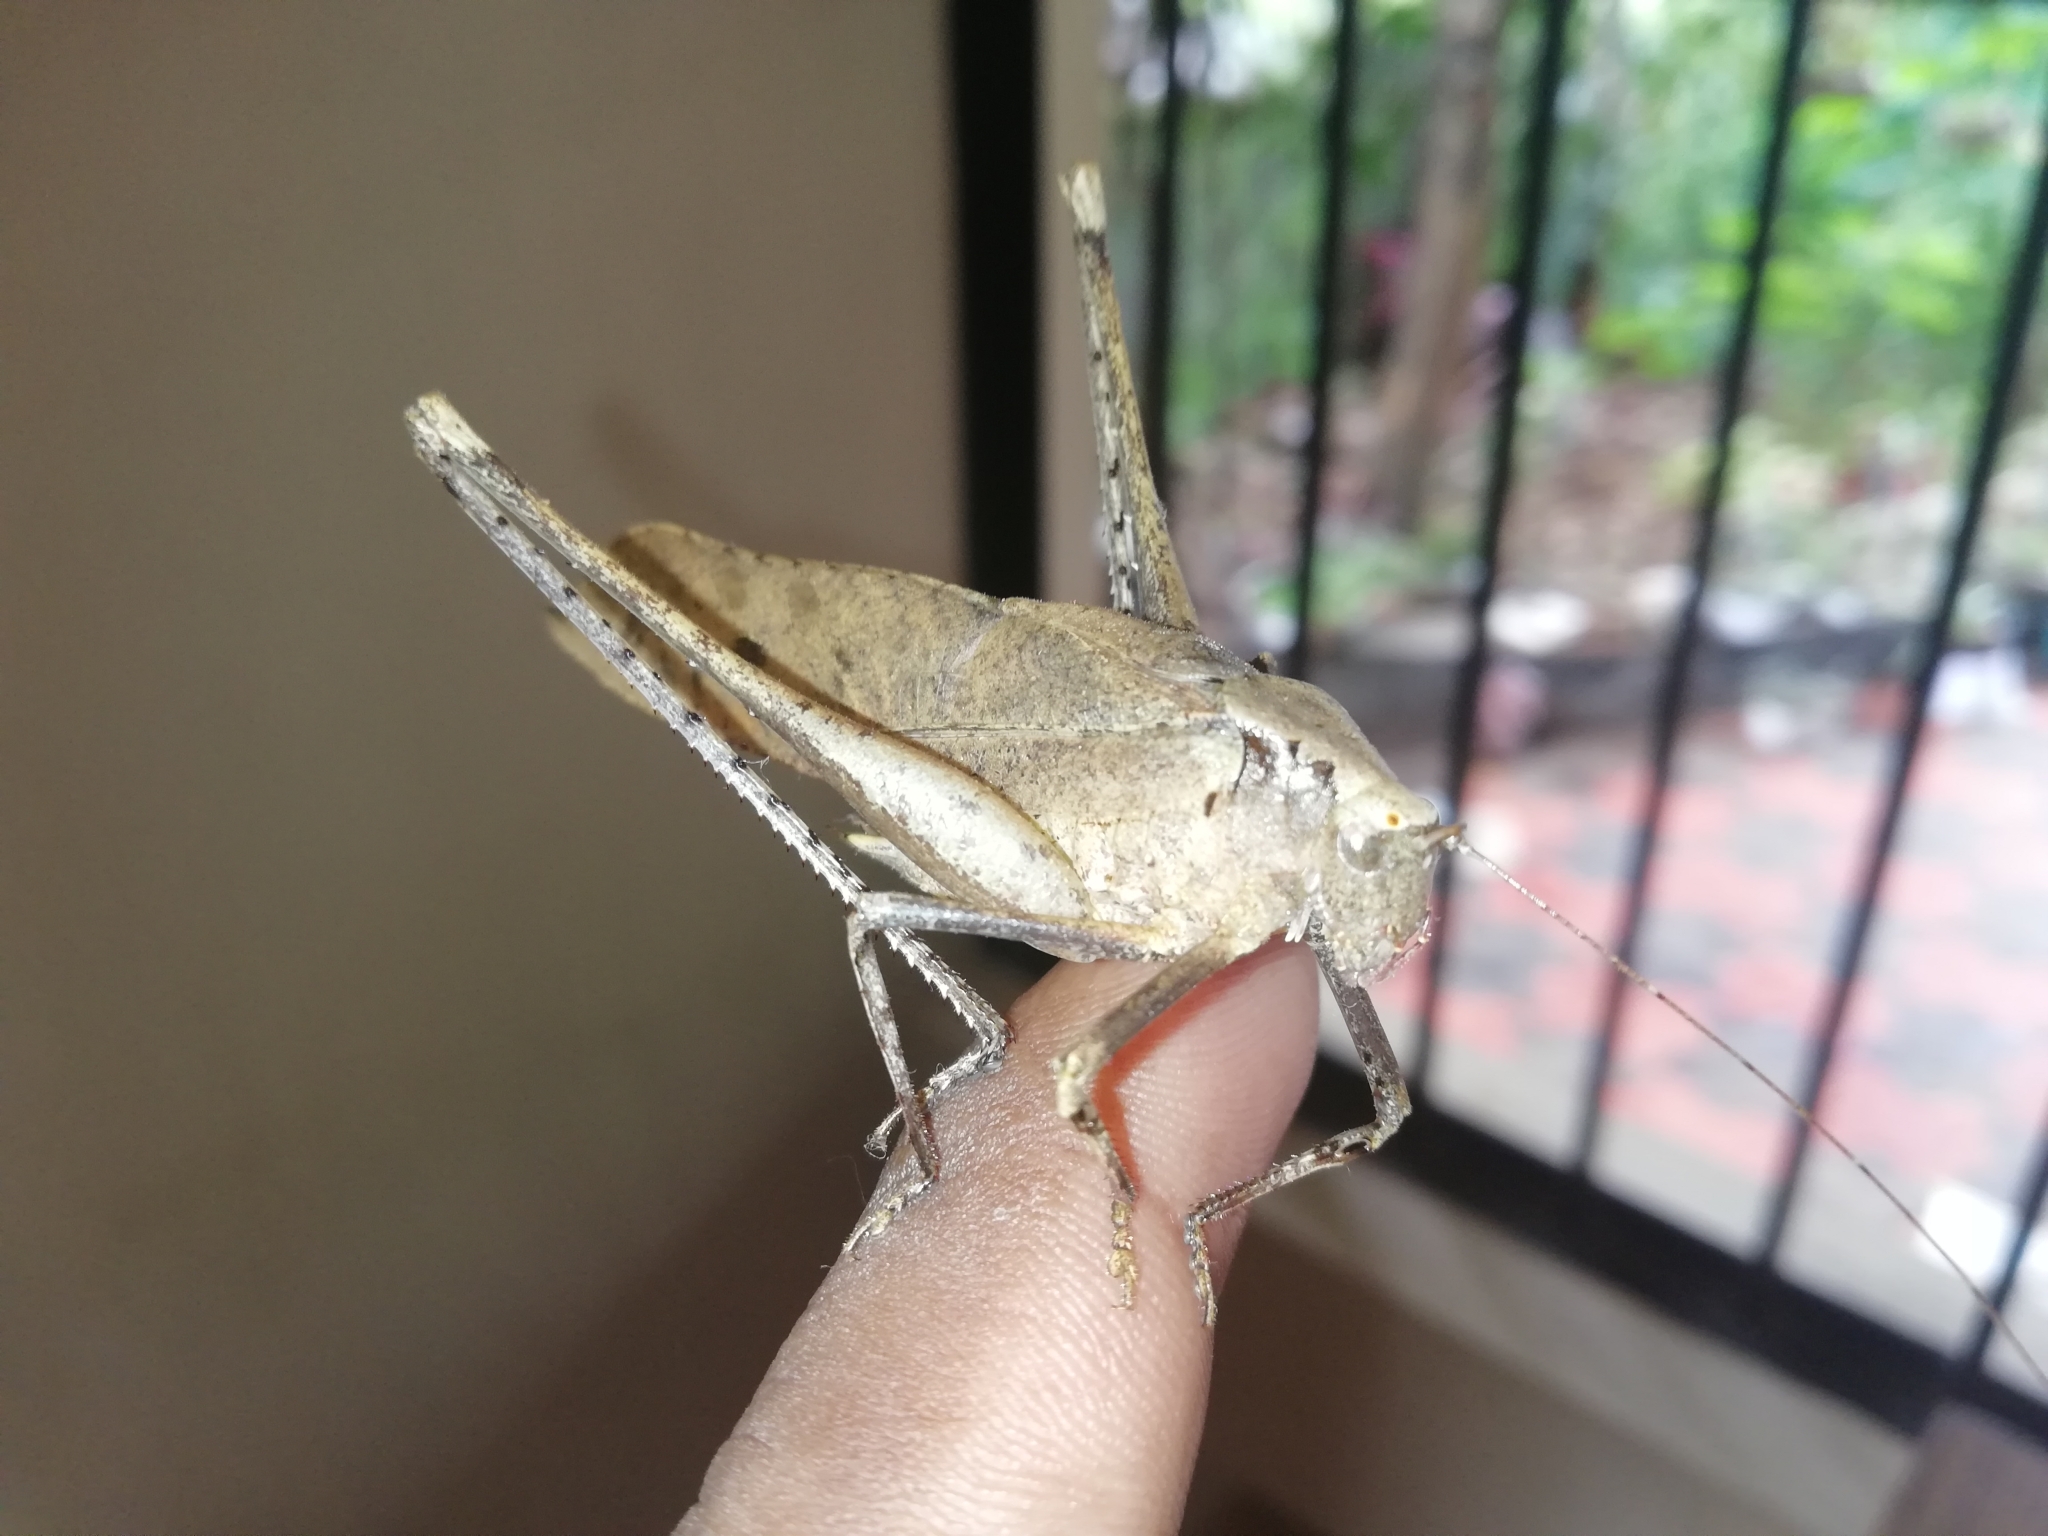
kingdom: Animalia
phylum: Arthropoda
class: Insecta
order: Orthoptera
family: Tettigoniidae
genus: Mecopoda
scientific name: Mecopoda elongata
